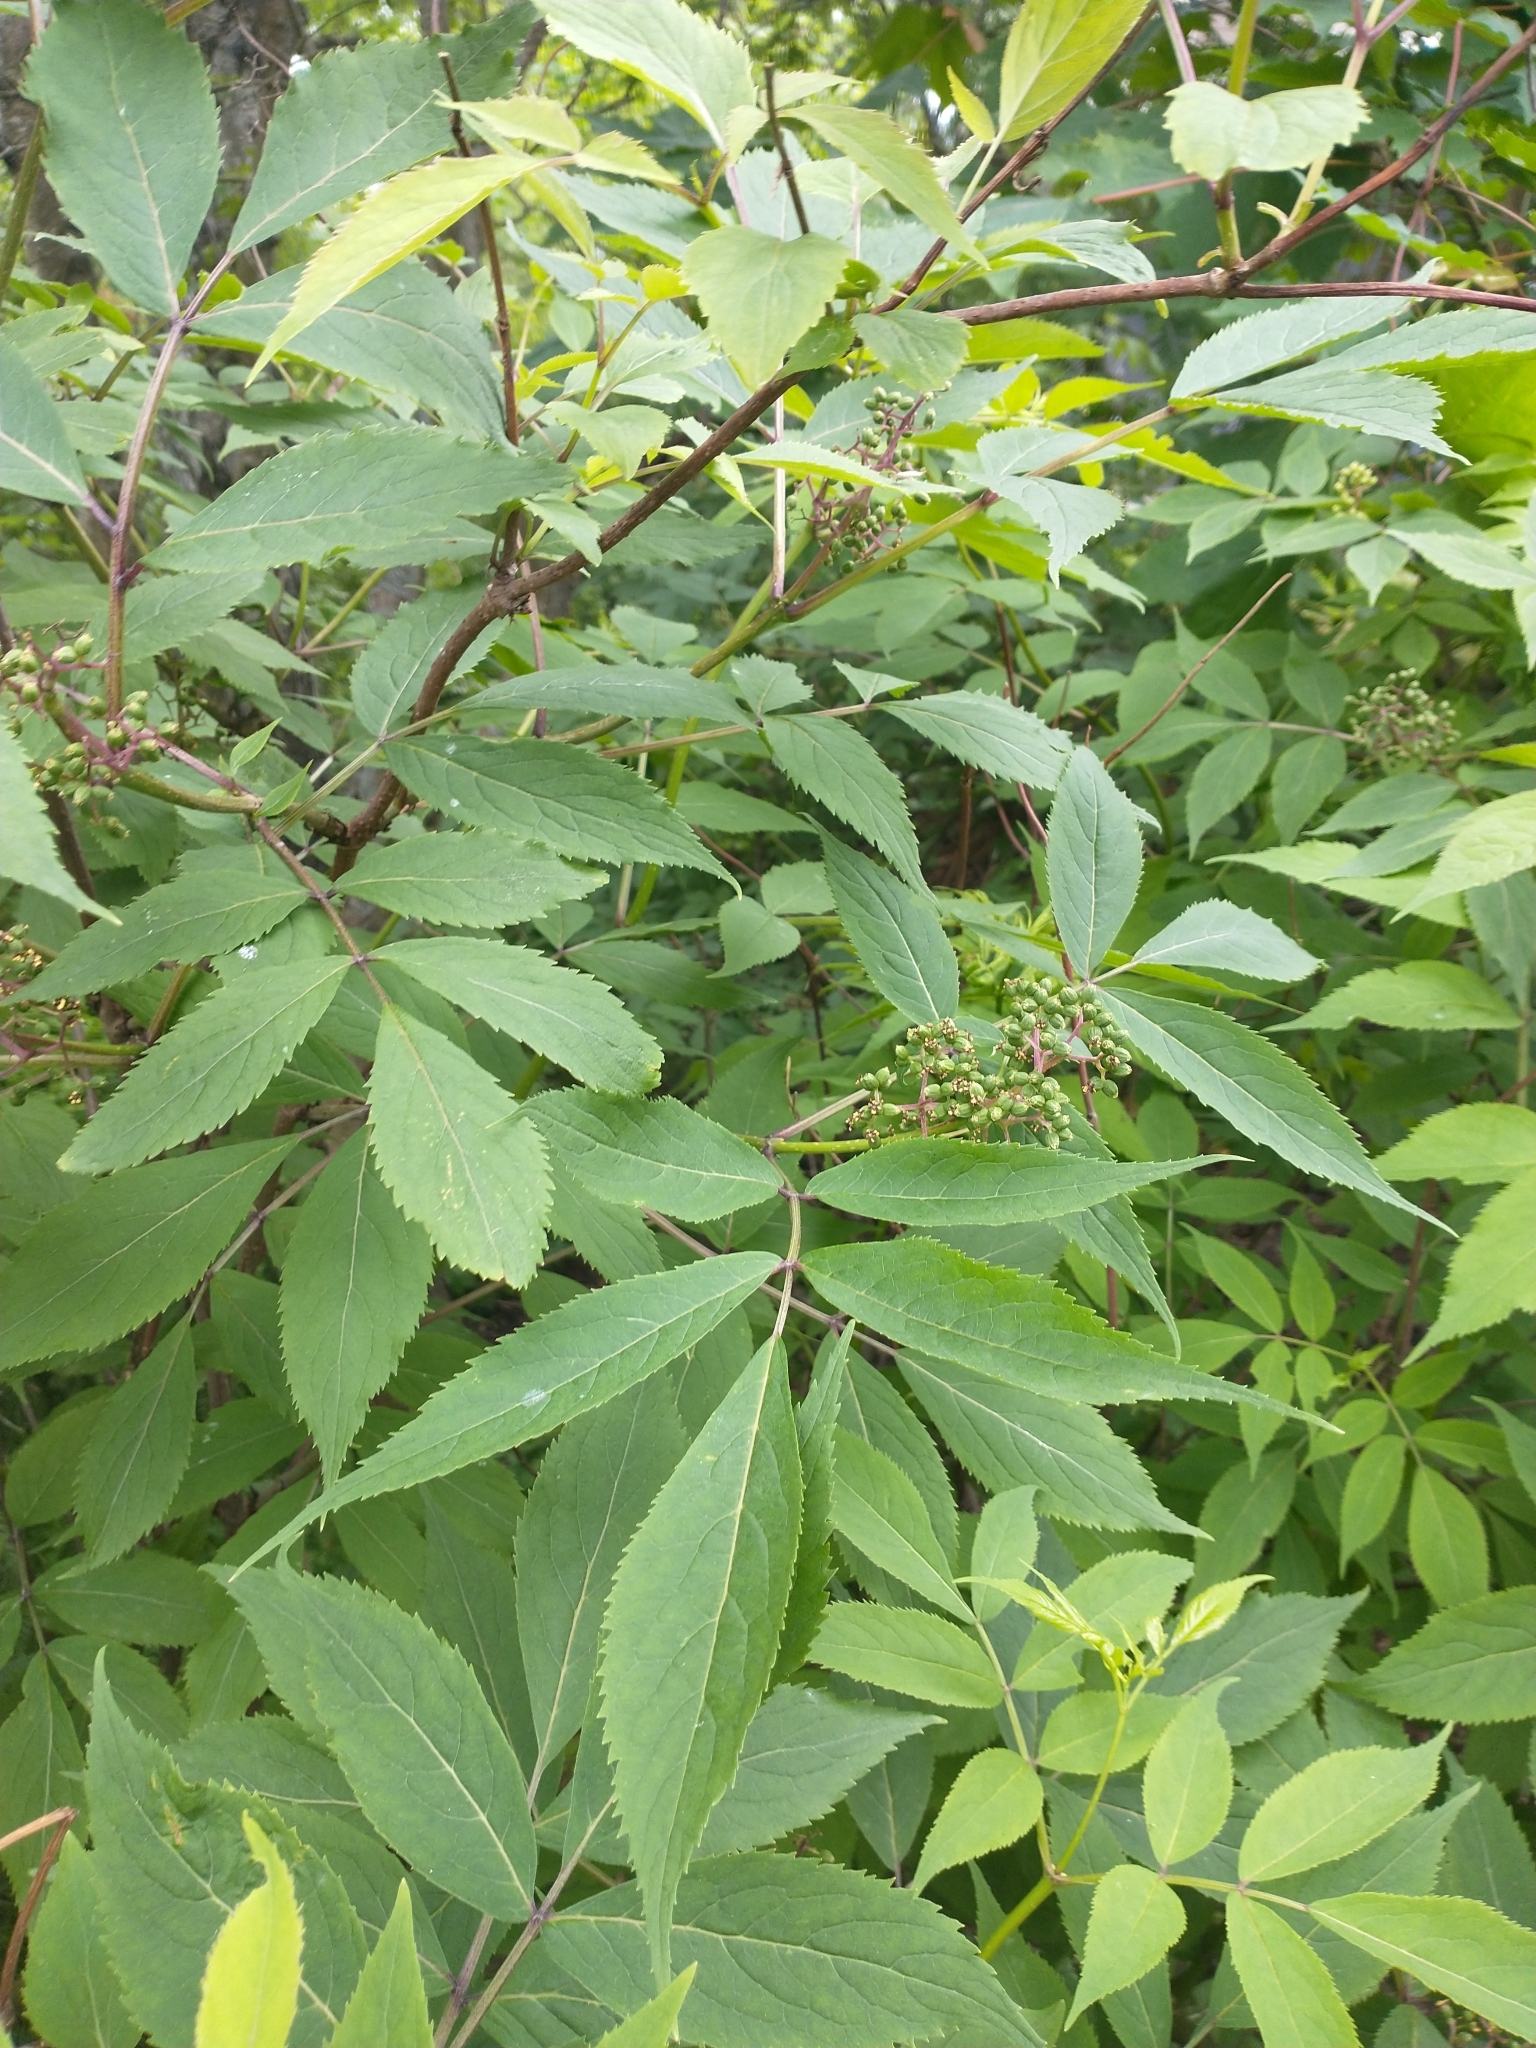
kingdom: Plantae
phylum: Tracheophyta
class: Magnoliopsida
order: Dipsacales
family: Viburnaceae
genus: Sambucus
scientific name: Sambucus racemosa
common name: Red-berried elder
